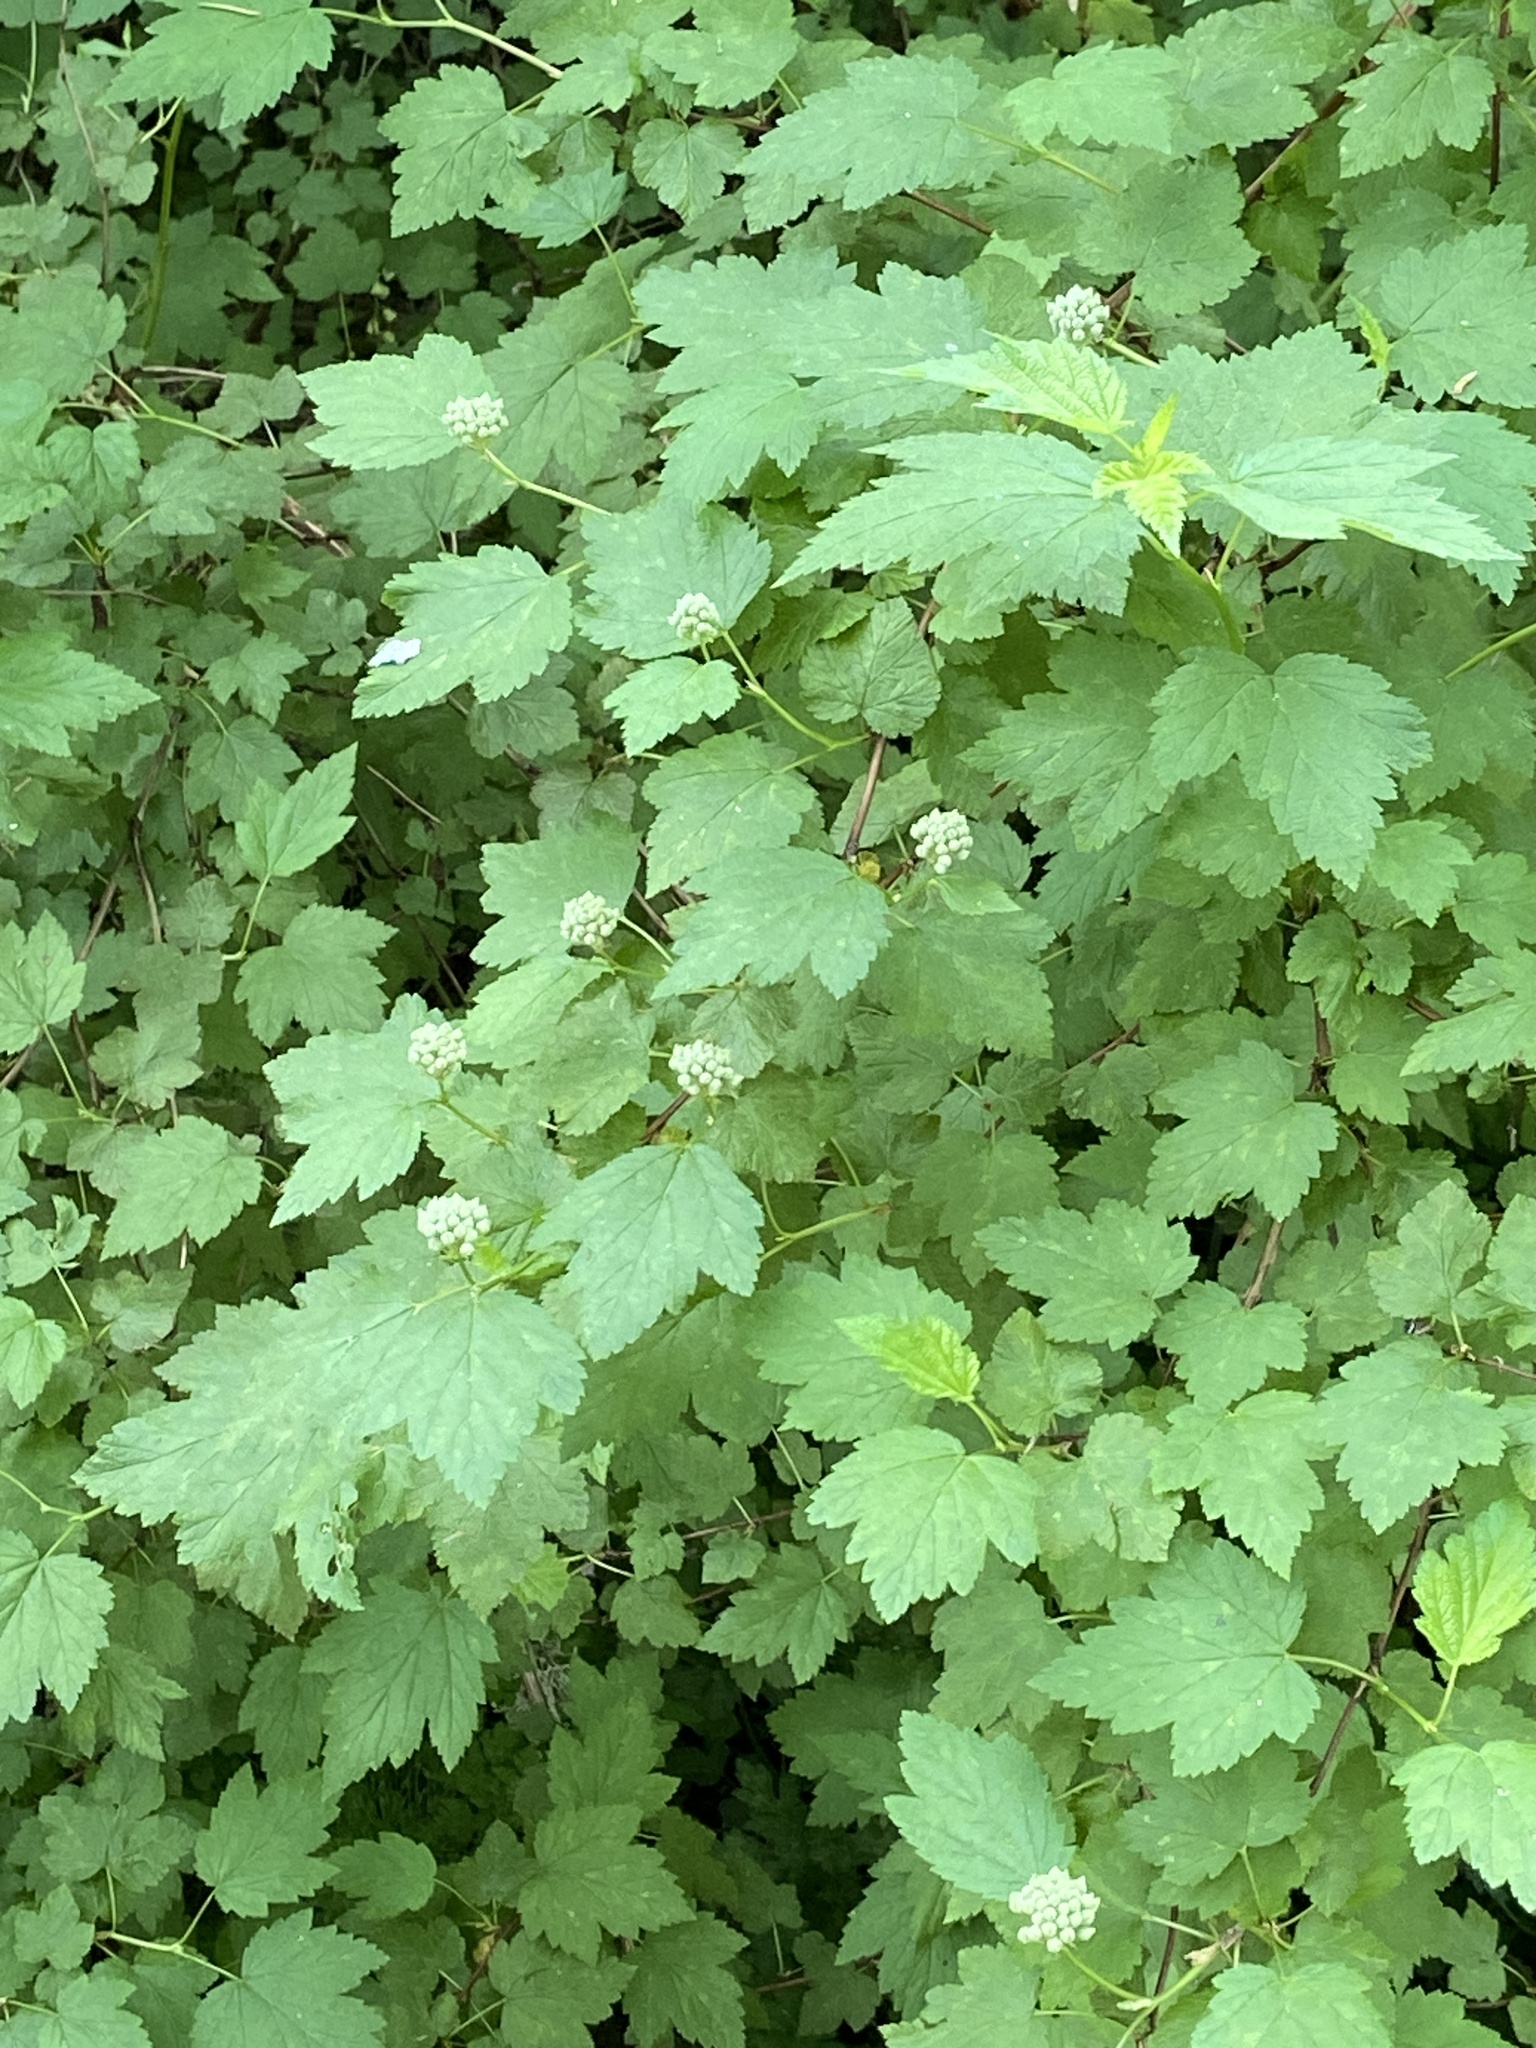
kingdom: Plantae
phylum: Tracheophyta
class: Magnoliopsida
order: Rosales
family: Rosaceae
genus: Physocarpus
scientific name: Physocarpus capitatus
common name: Pacific ninebark
